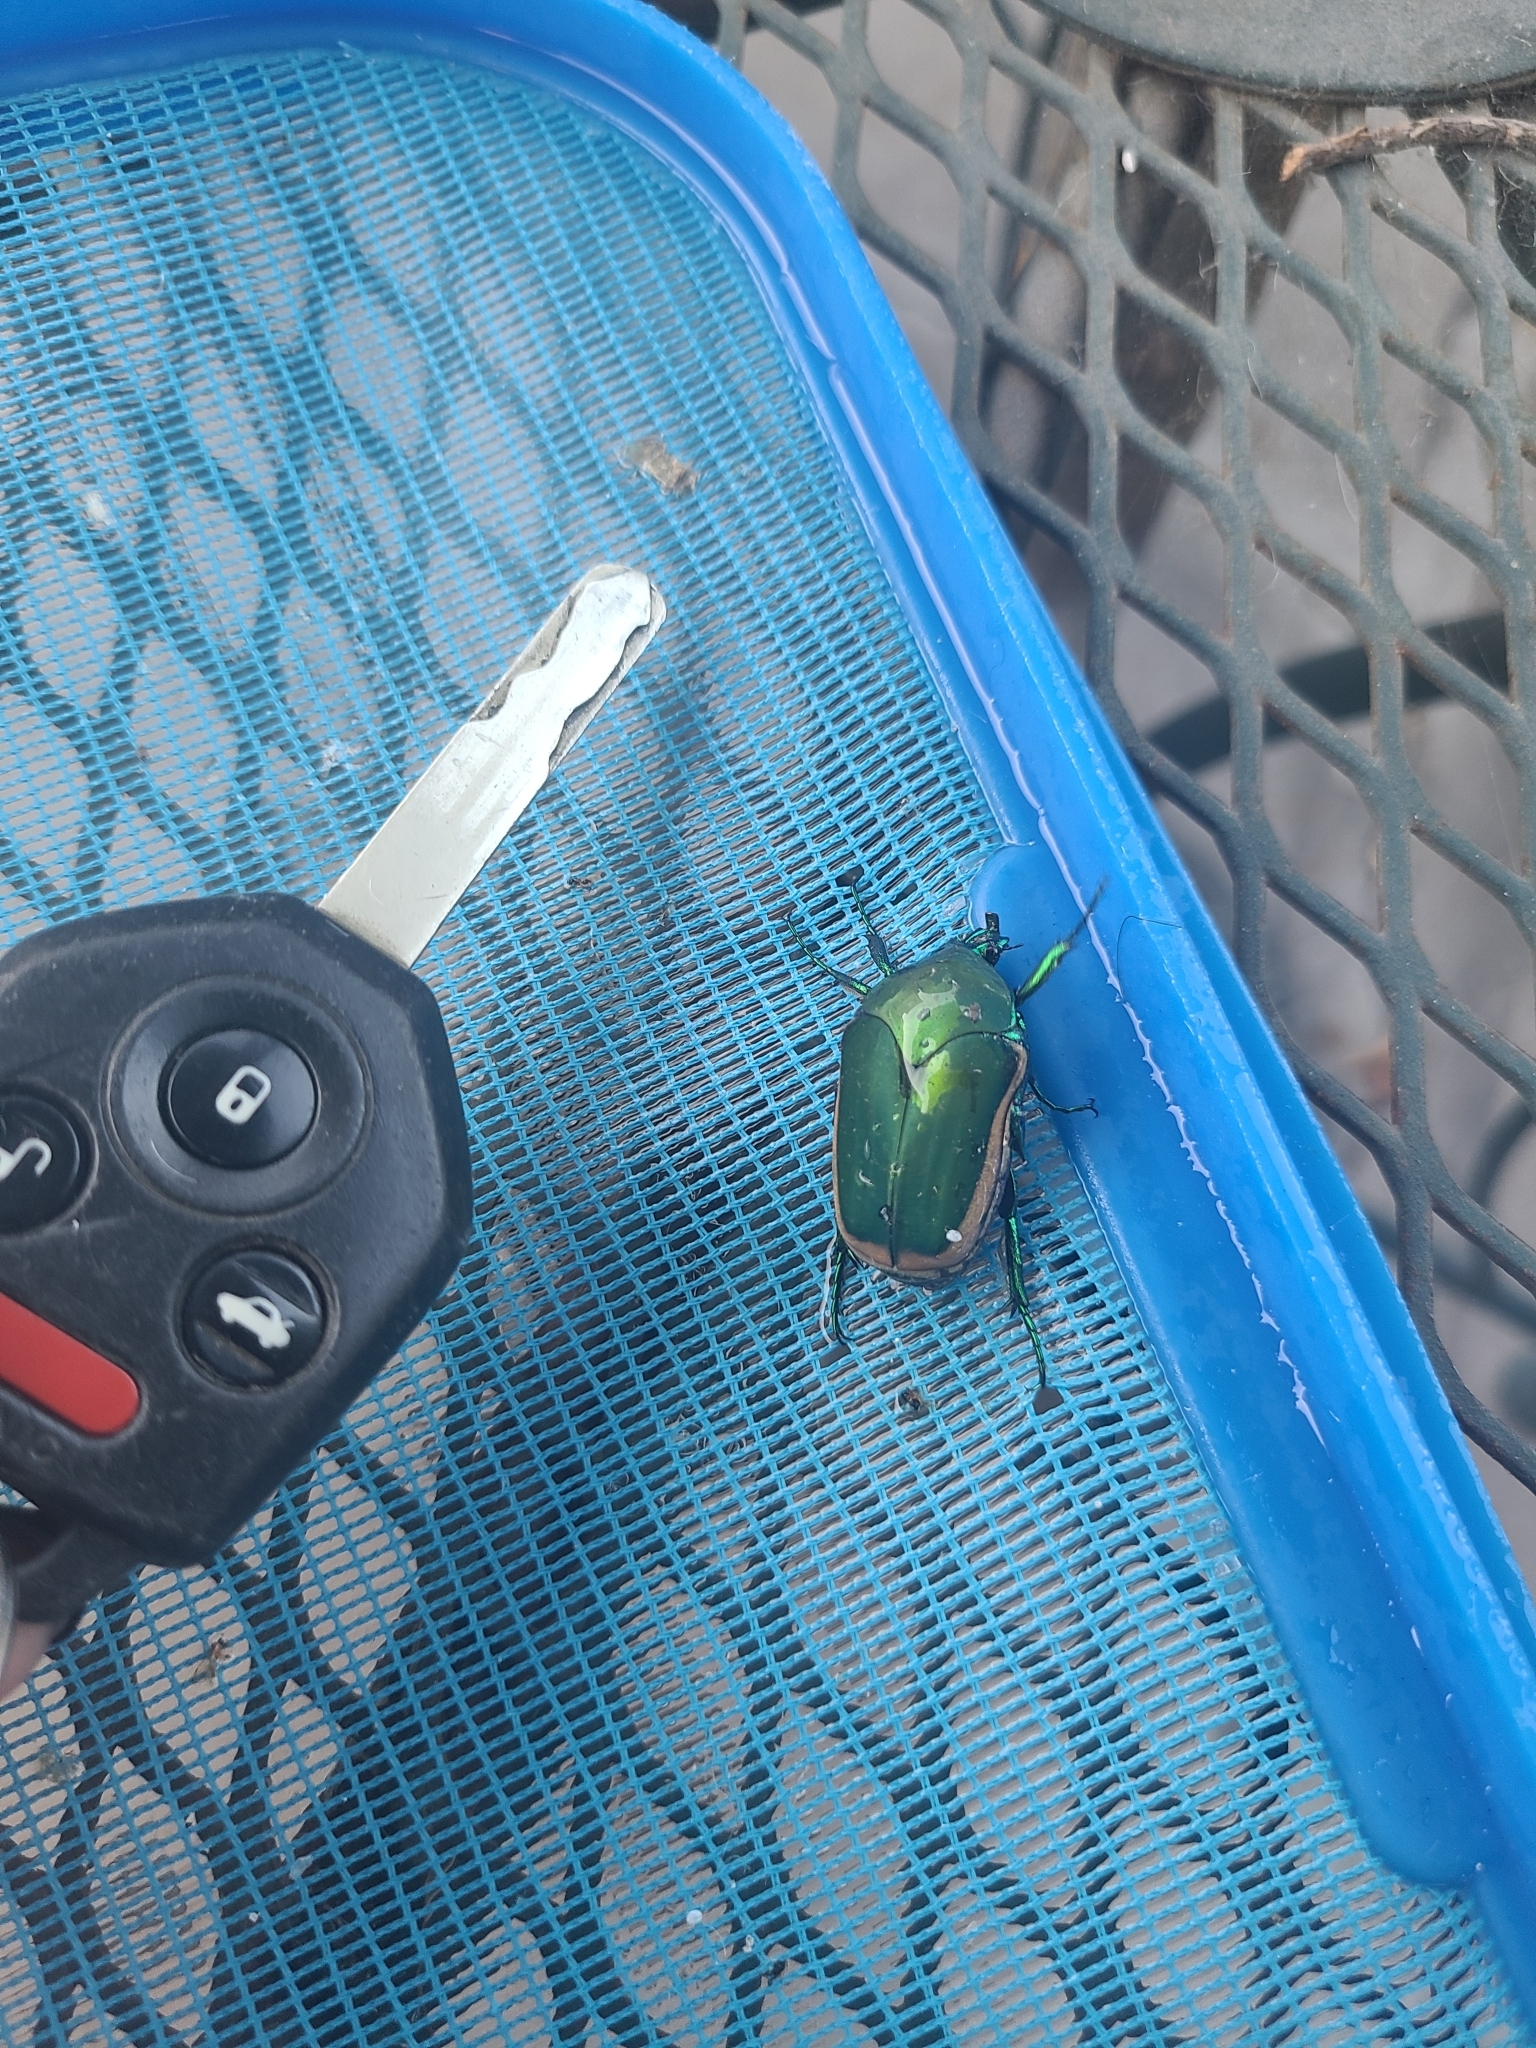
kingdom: Animalia
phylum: Arthropoda
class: Insecta
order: Coleoptera
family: Scarabaeidae
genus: Cotinis
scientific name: Cotinis mutabilis
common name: Figeater beetle
